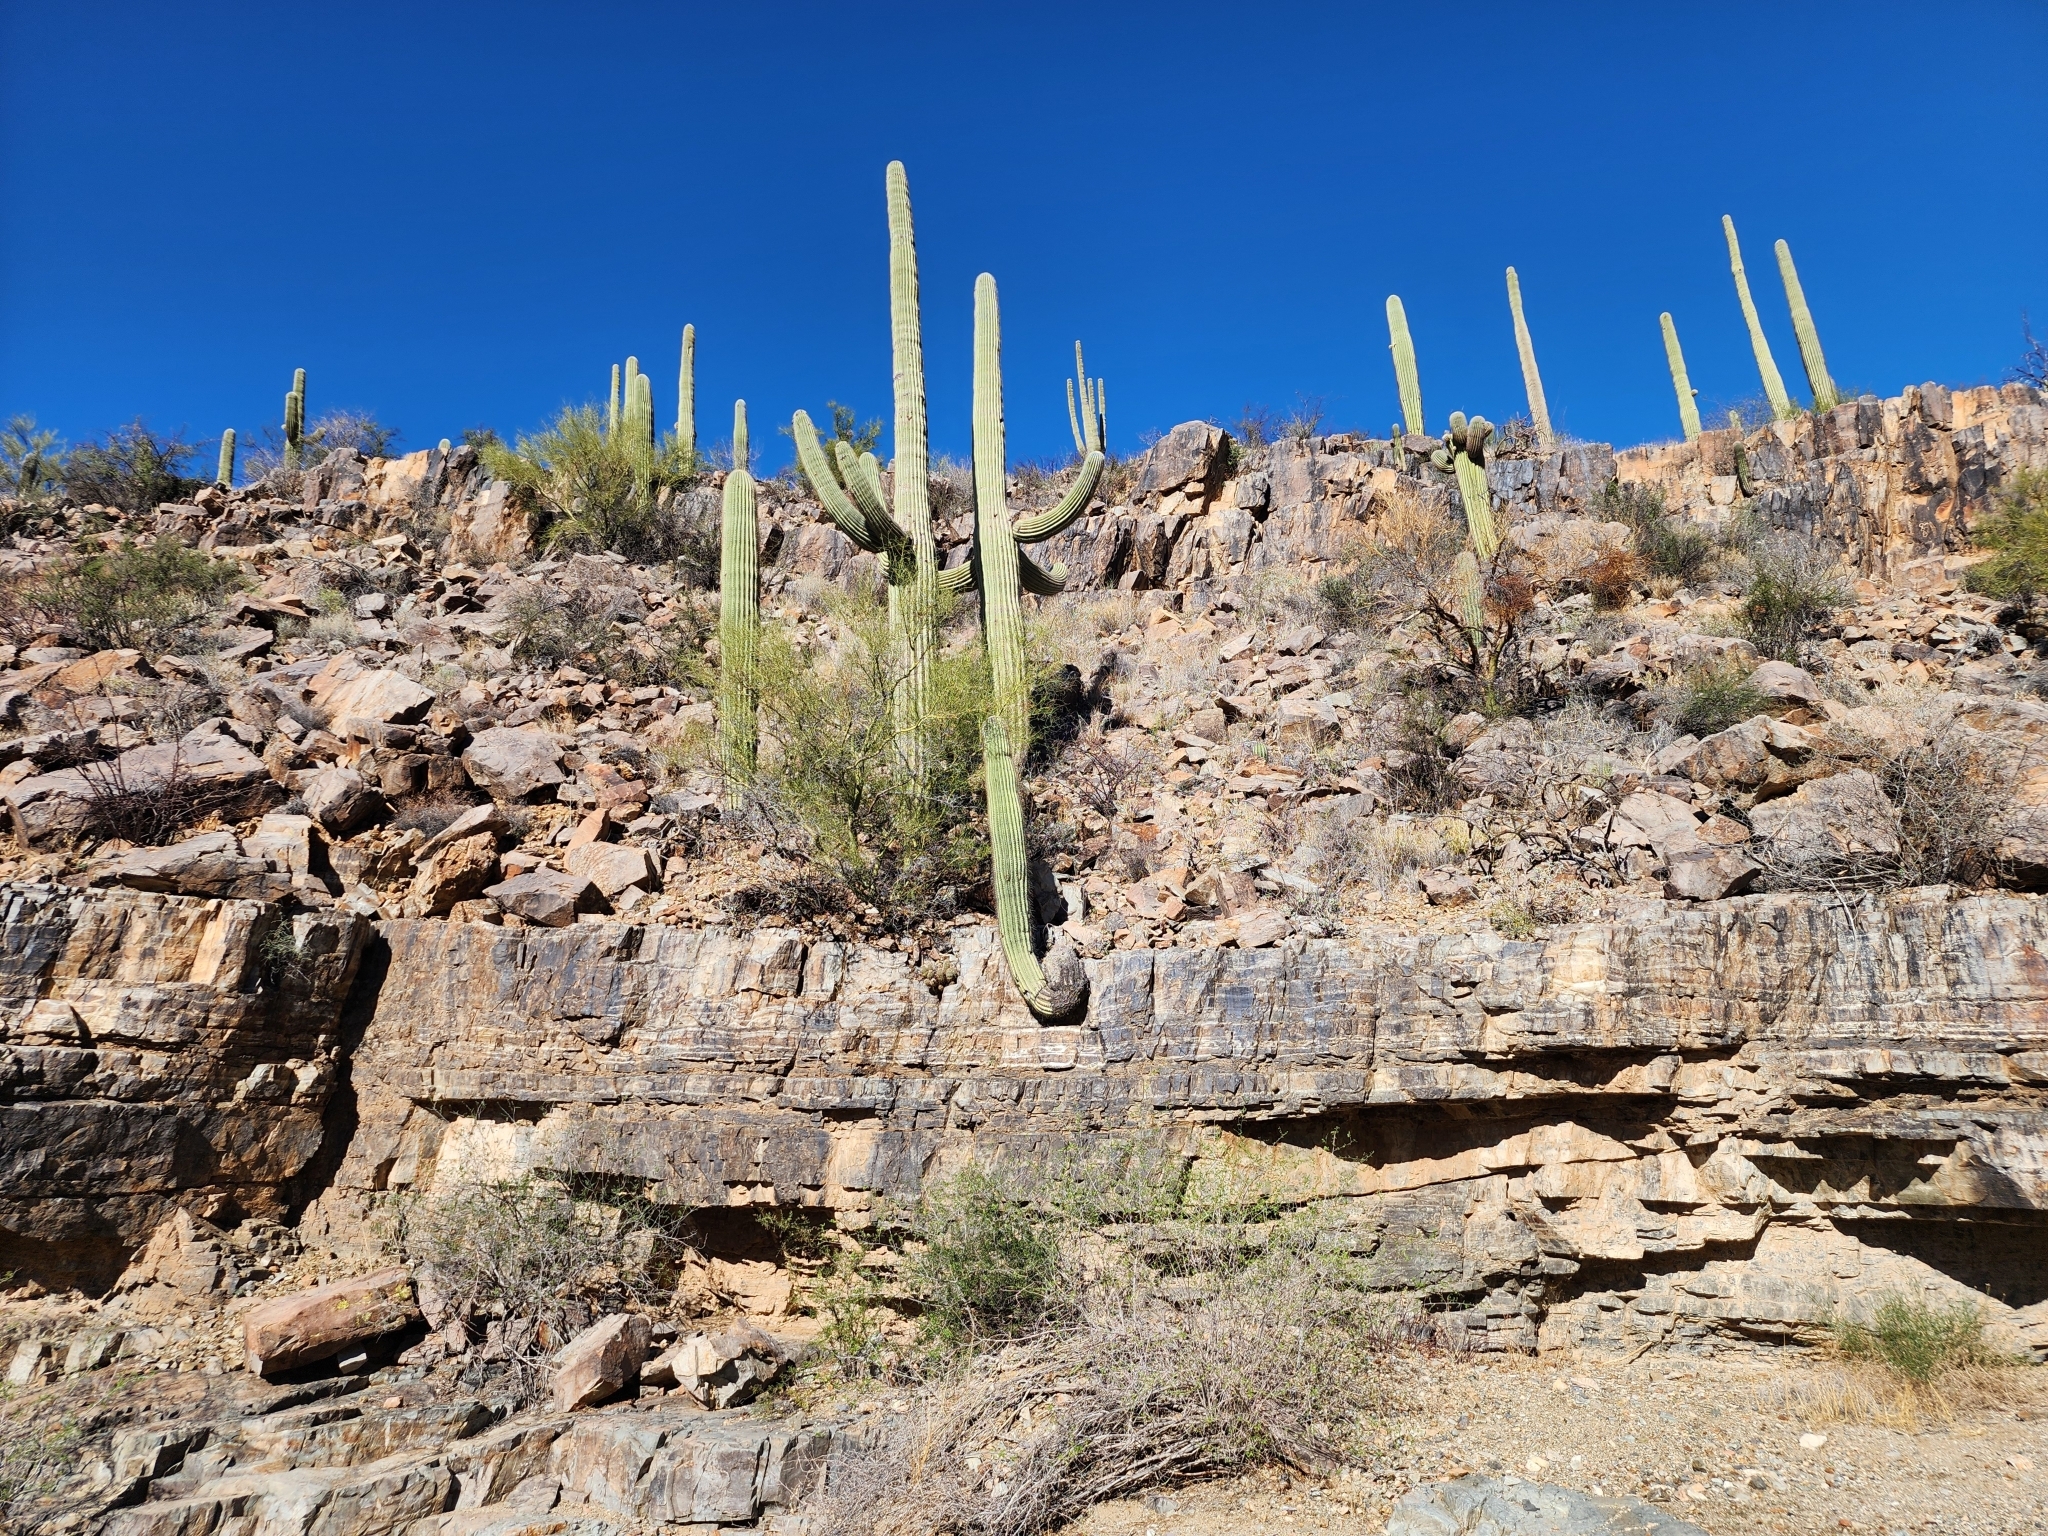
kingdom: Plantae
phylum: Tracheophyta
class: Magnoliopsida
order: Caryophyllales
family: Cactaceae
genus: Carnegiea
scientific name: Carnegiea gigantea
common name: Saguaro
